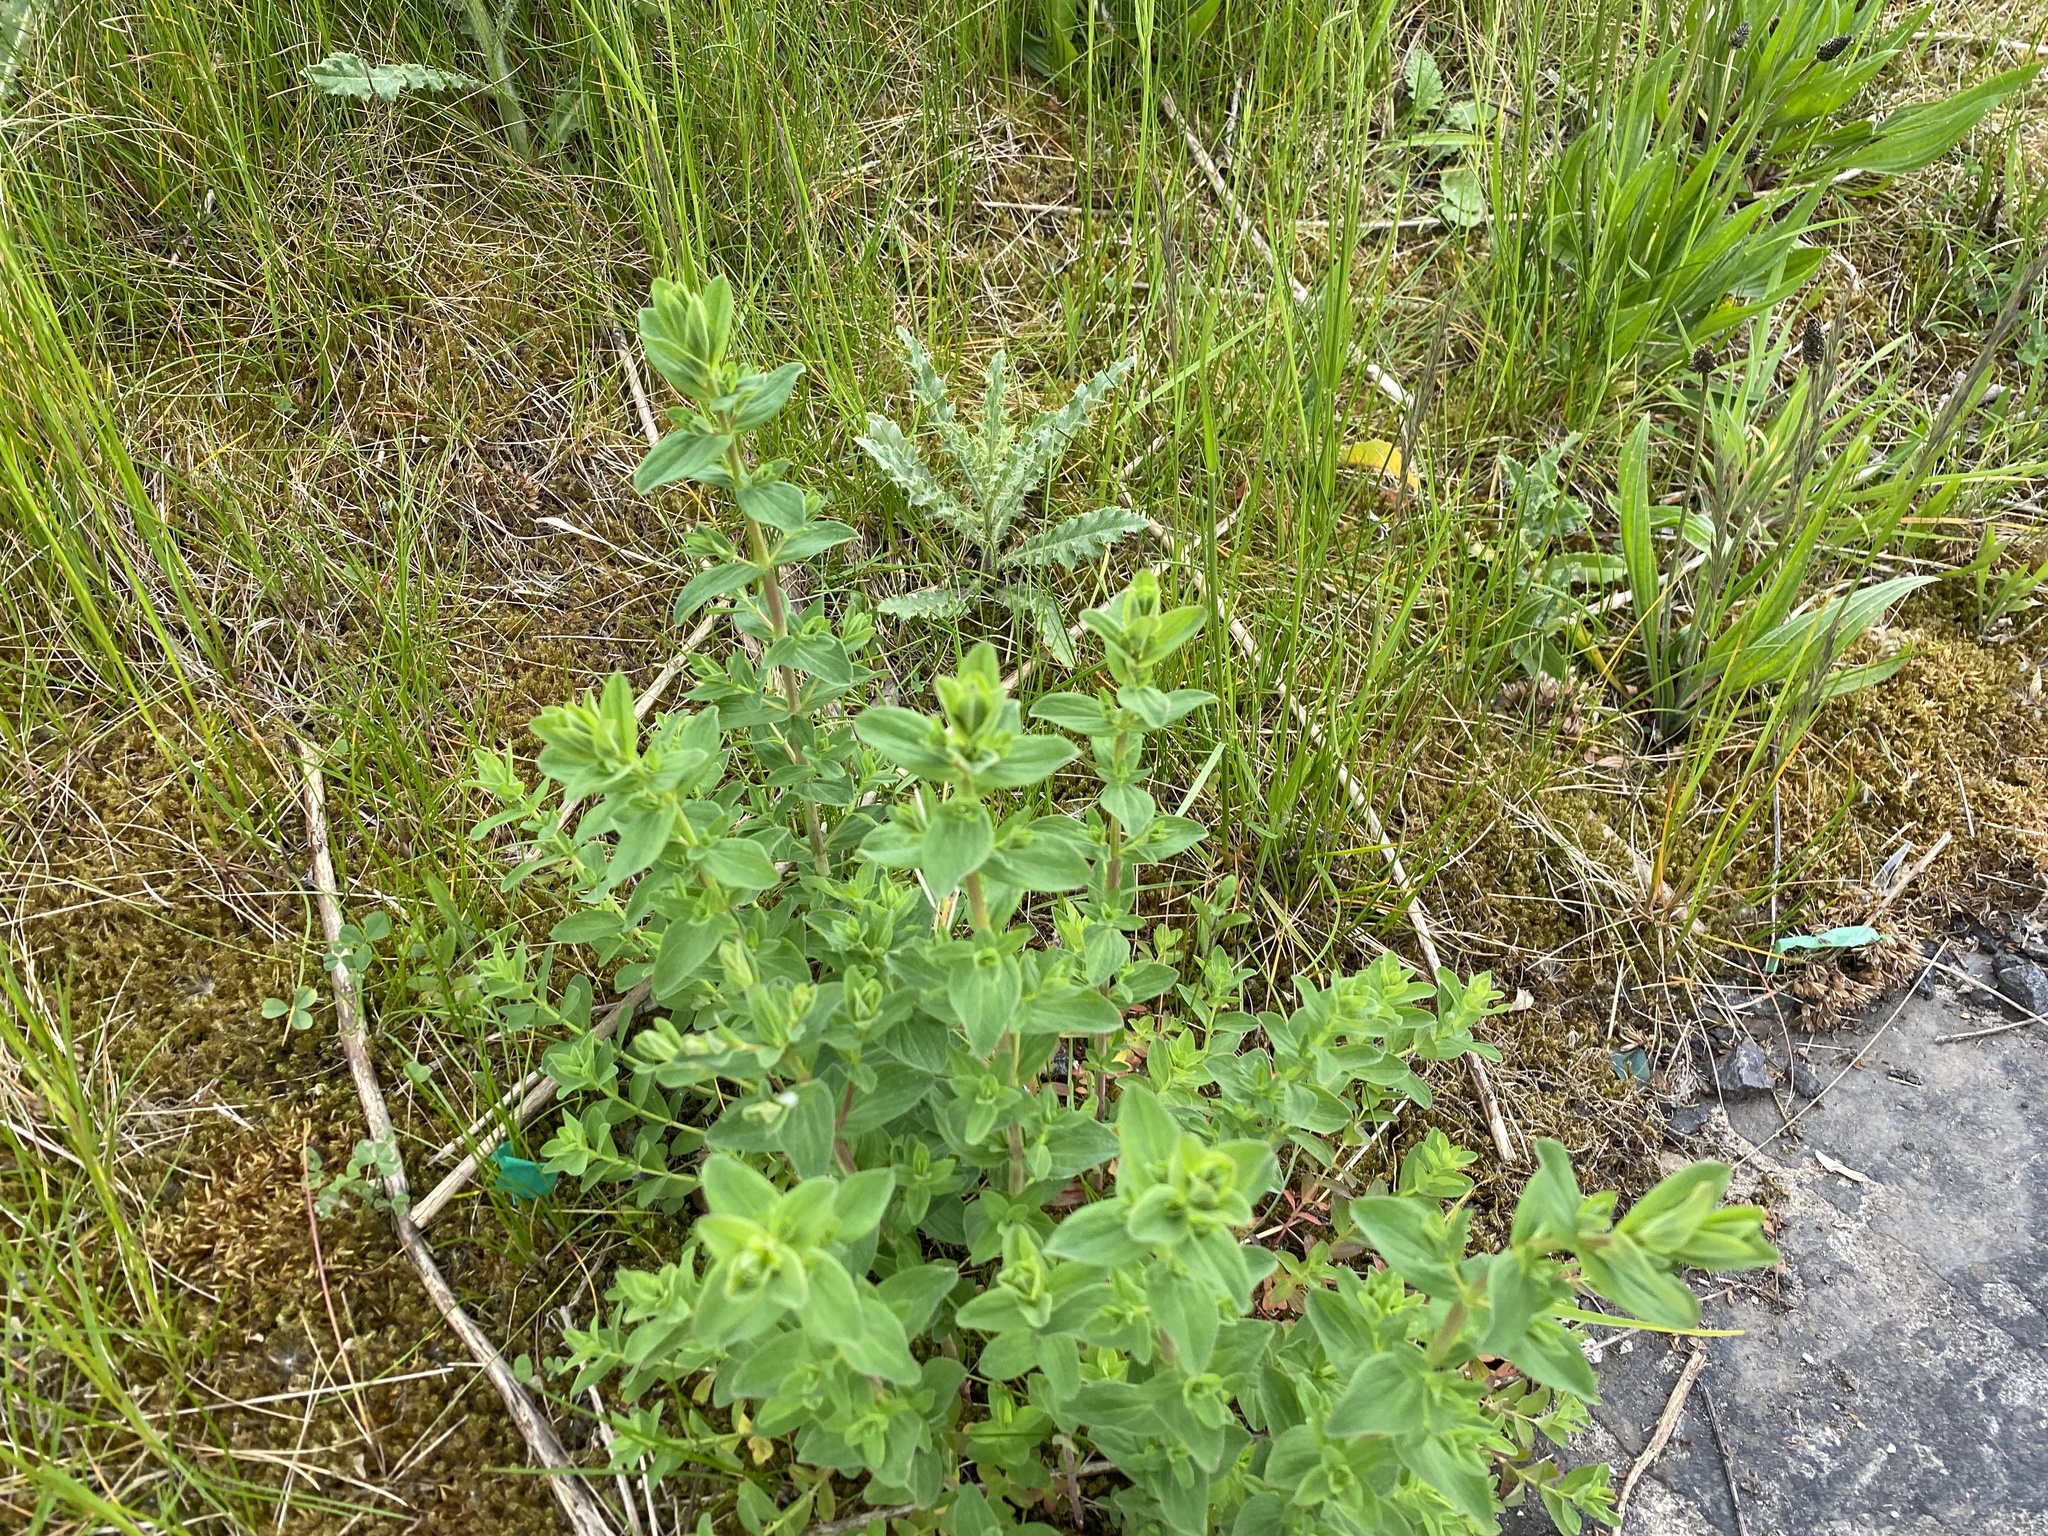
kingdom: Plantae
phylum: Tracheophyta
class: Magnoliopsida
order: Malpighiales
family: Hypericaceae
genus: Hypericum
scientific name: Hypericum perforatum
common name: Common st. johnswort
